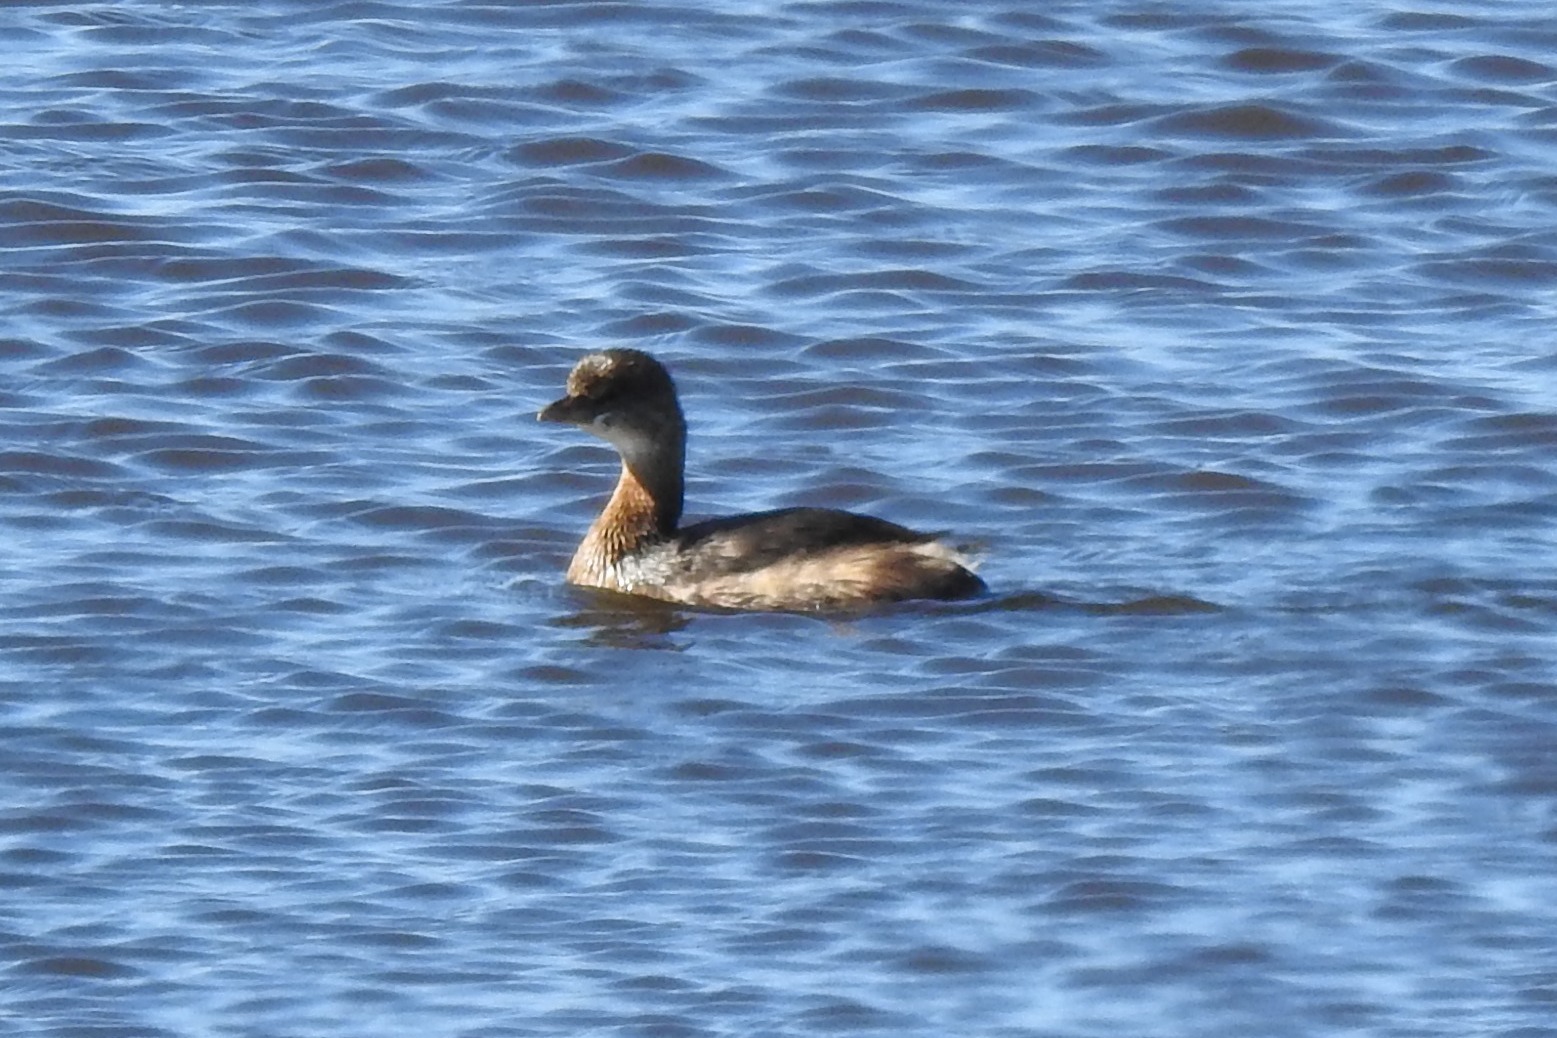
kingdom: Animalia
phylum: Chordata
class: Aves
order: Podicipediformes
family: Podicipedidae
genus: Podilymbus
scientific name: Podilymbus podiceps
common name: Pied-billed grebe
